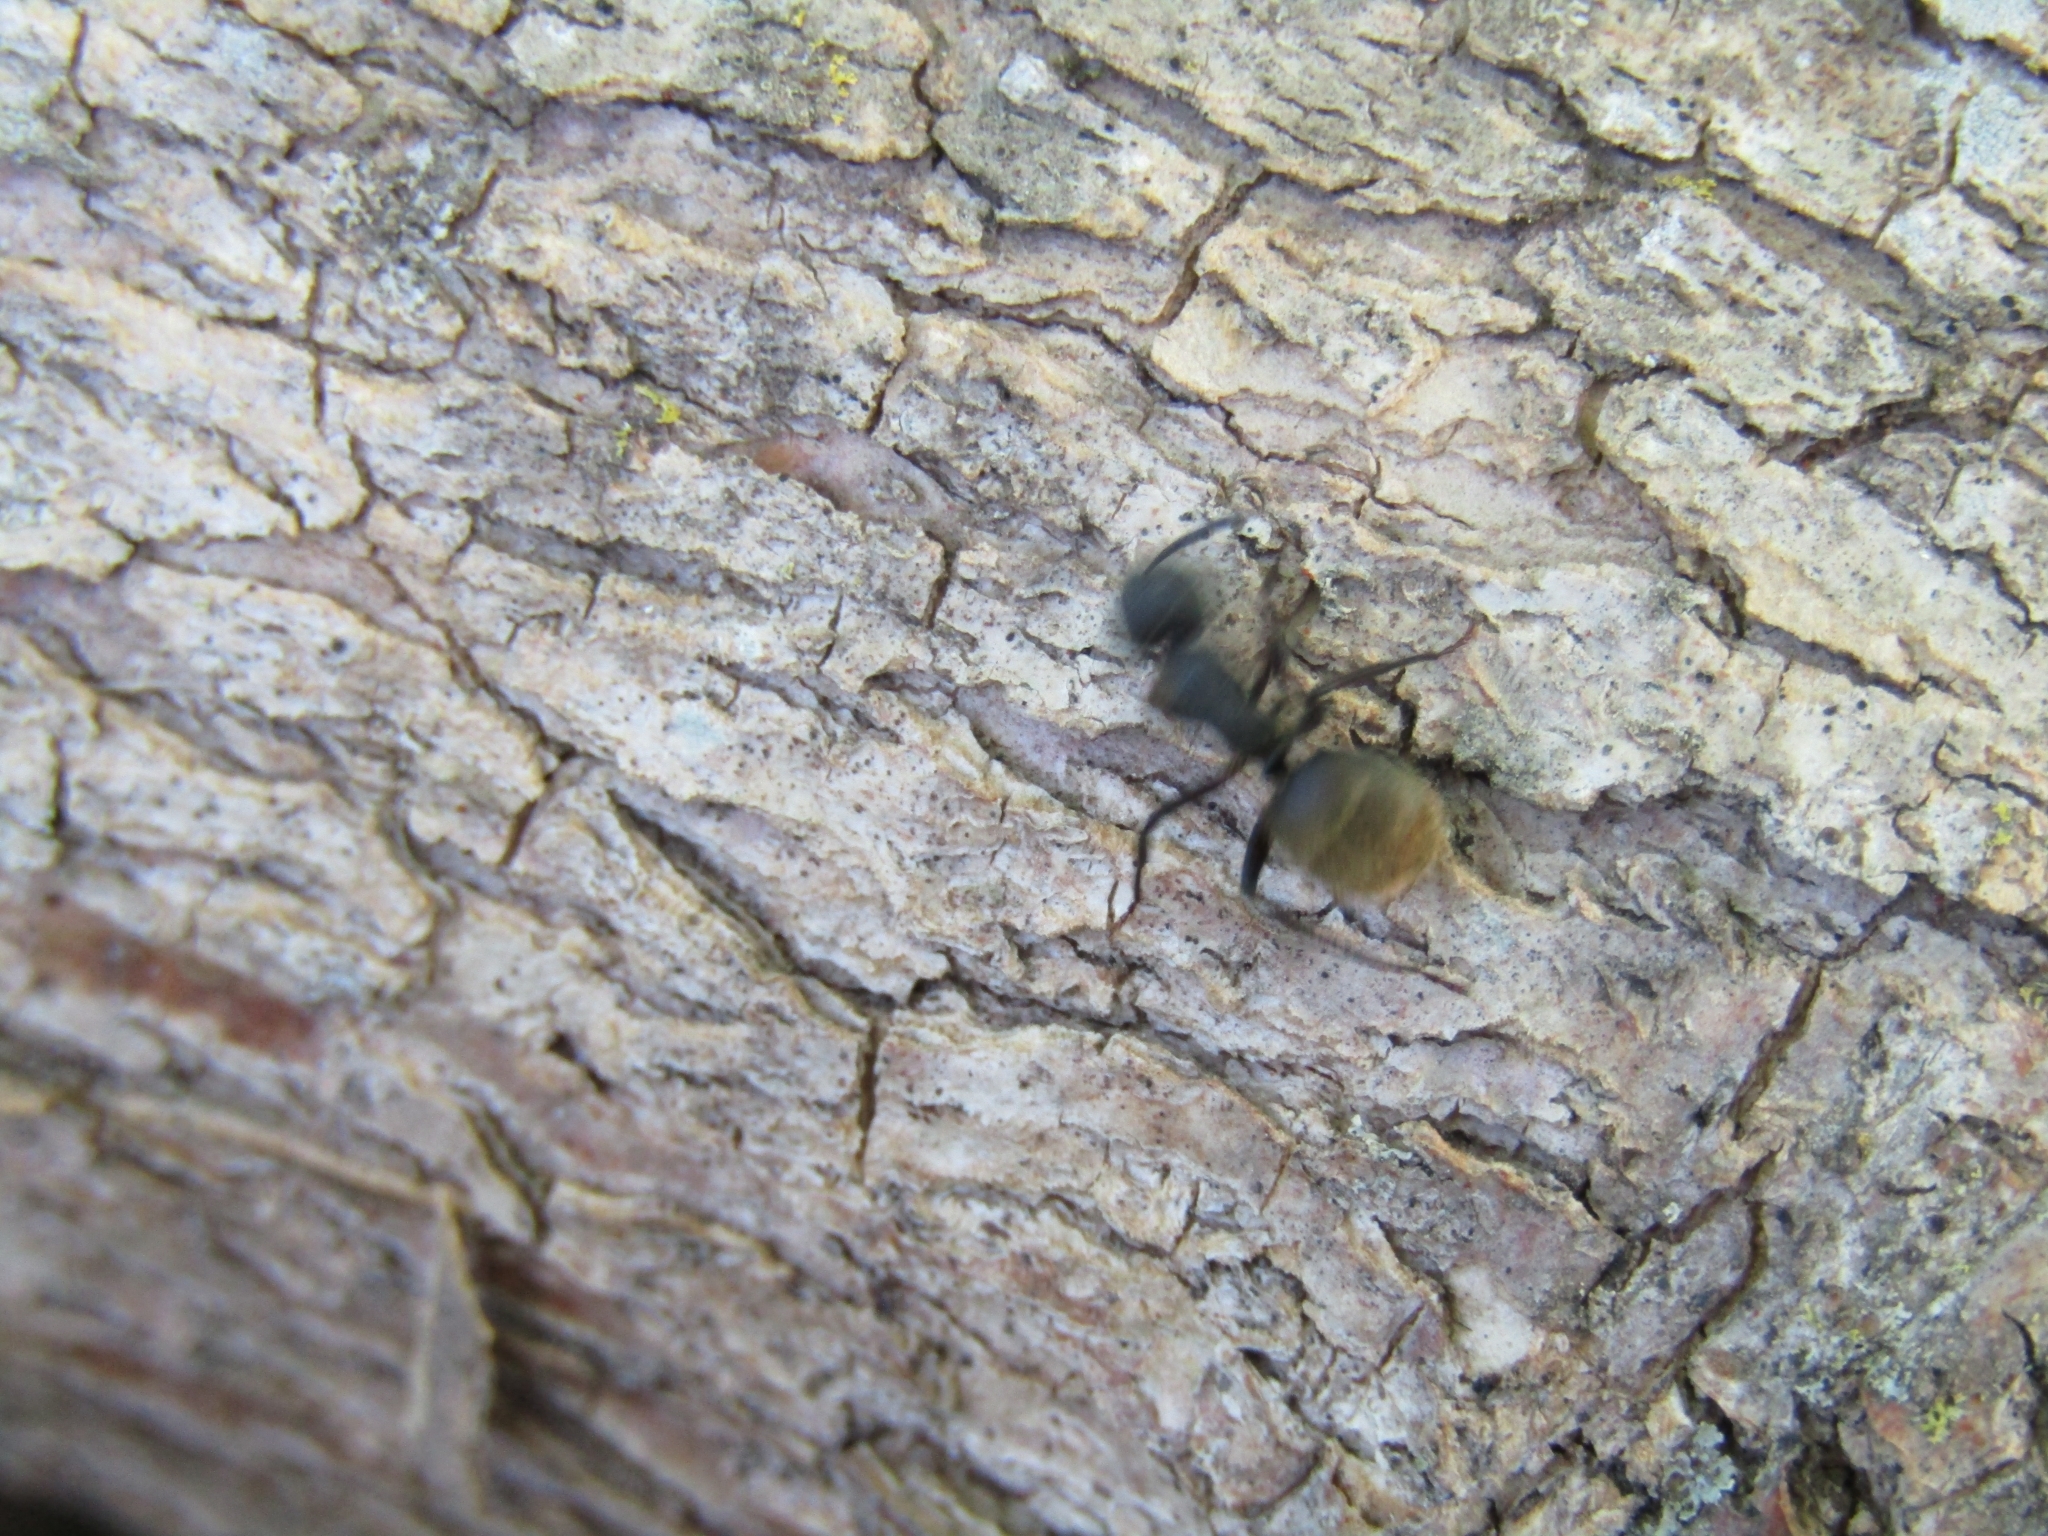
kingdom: Animalia
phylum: Arthropoda
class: Insecta
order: Hymenoptera
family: Formicidae
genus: Camponotus
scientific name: Camponotus mus
